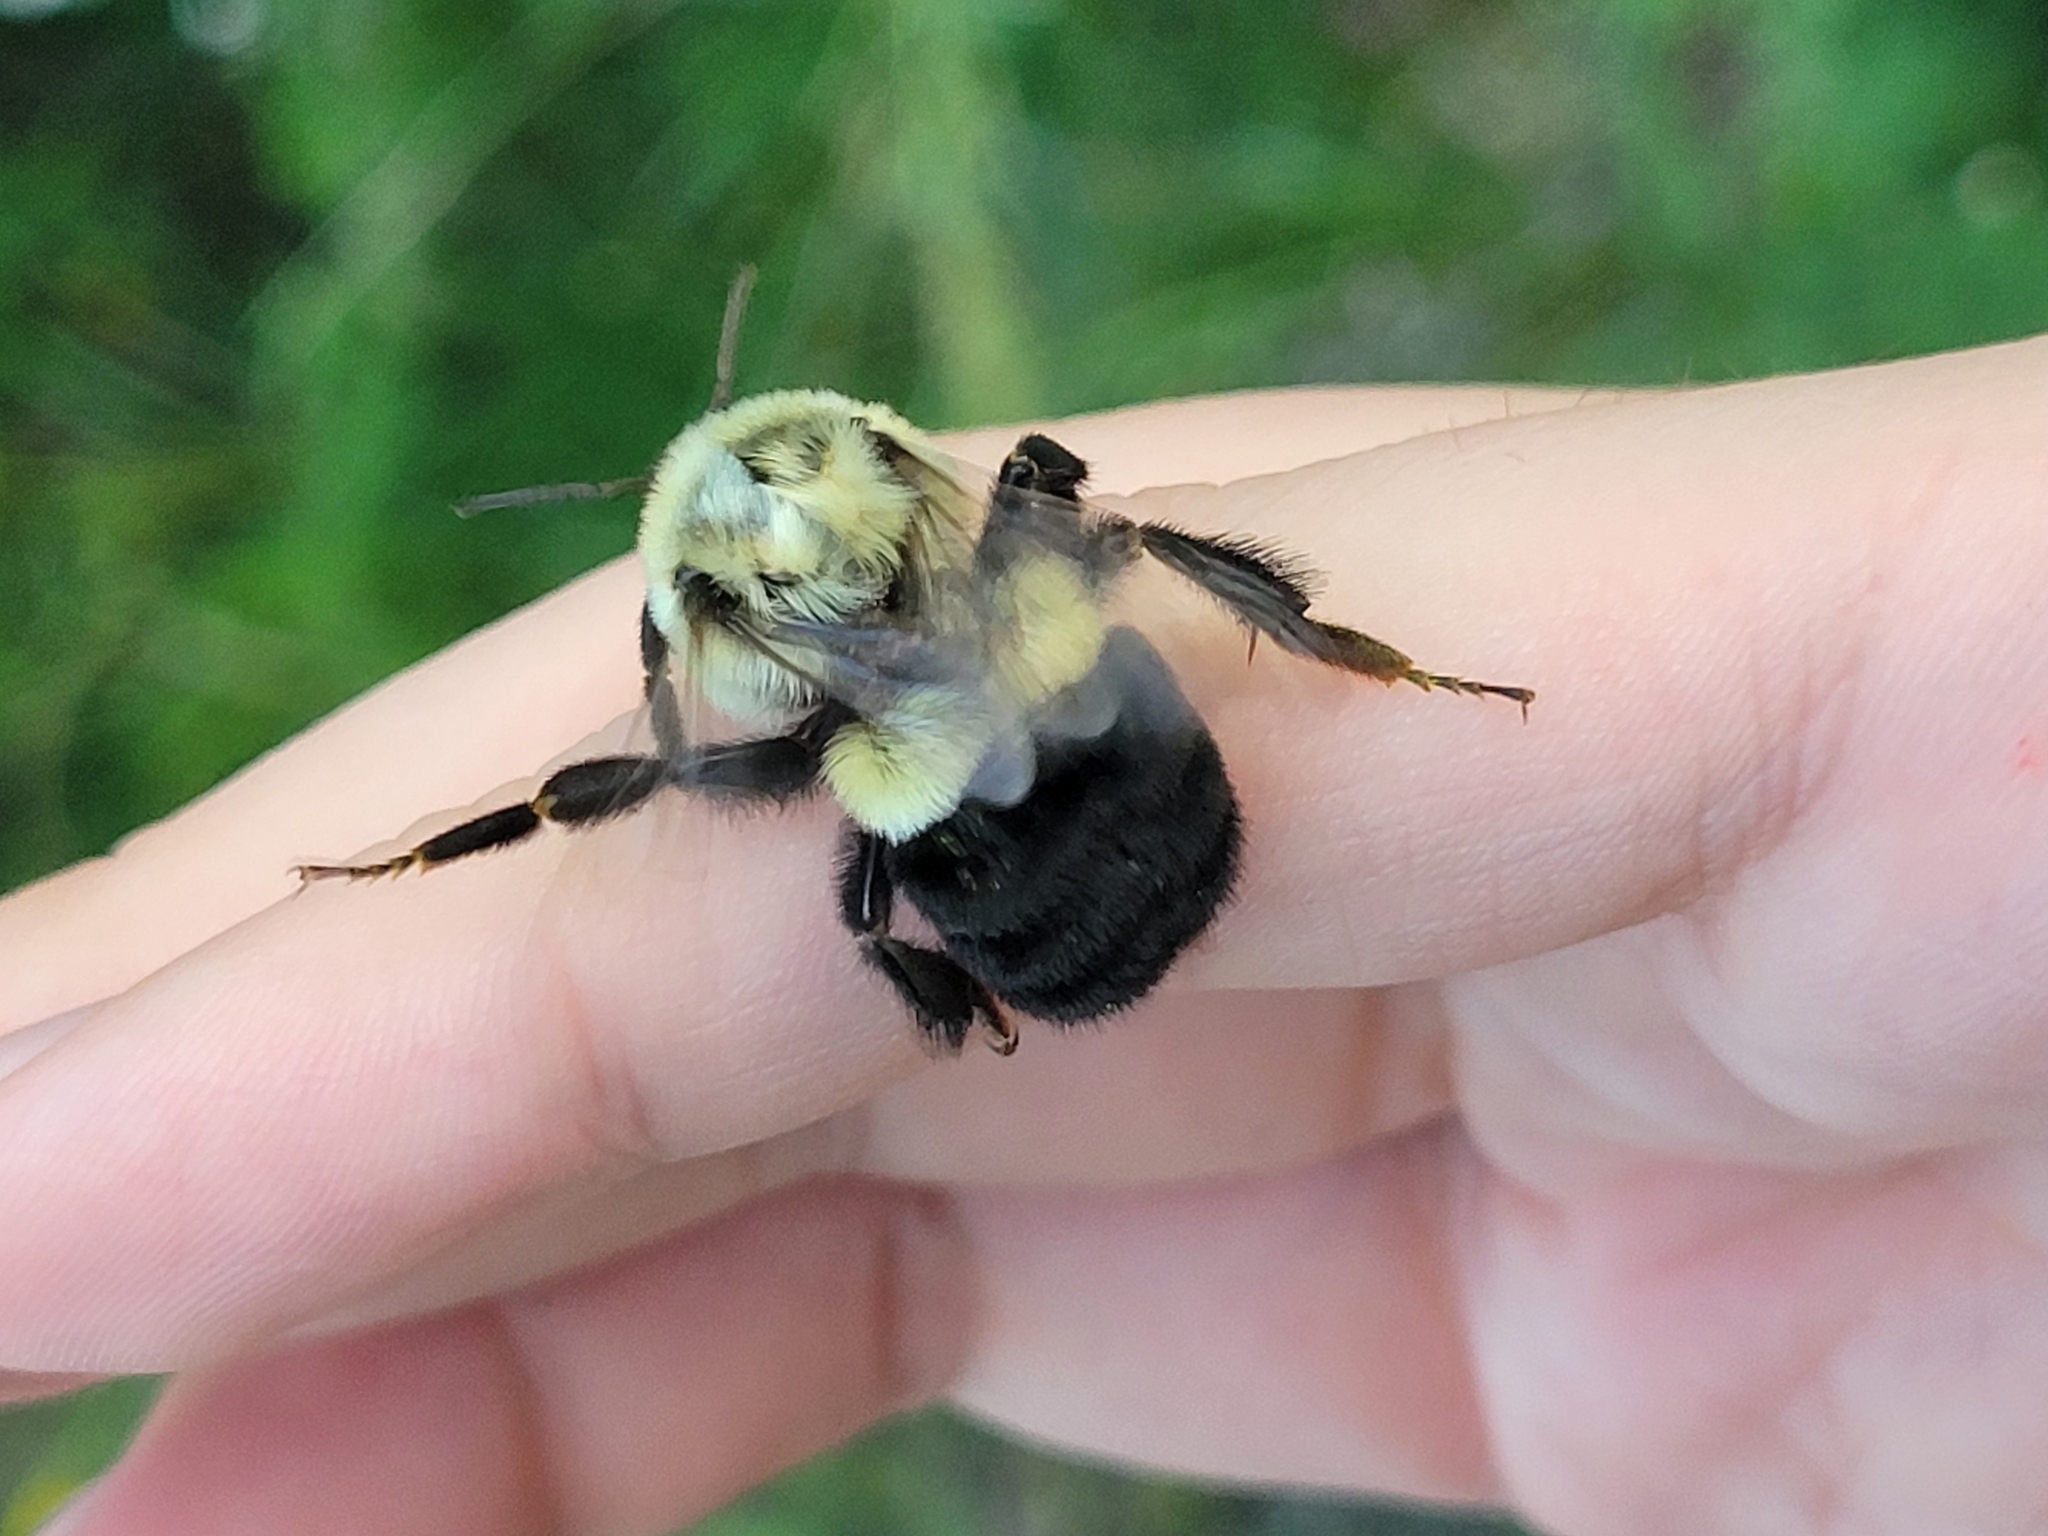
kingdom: Animalia
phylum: Arthropoda
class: Insecta
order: Hymenoptera
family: Apidae
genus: Bombus
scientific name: Bombus impatiens
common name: Common eastern bumble bee
